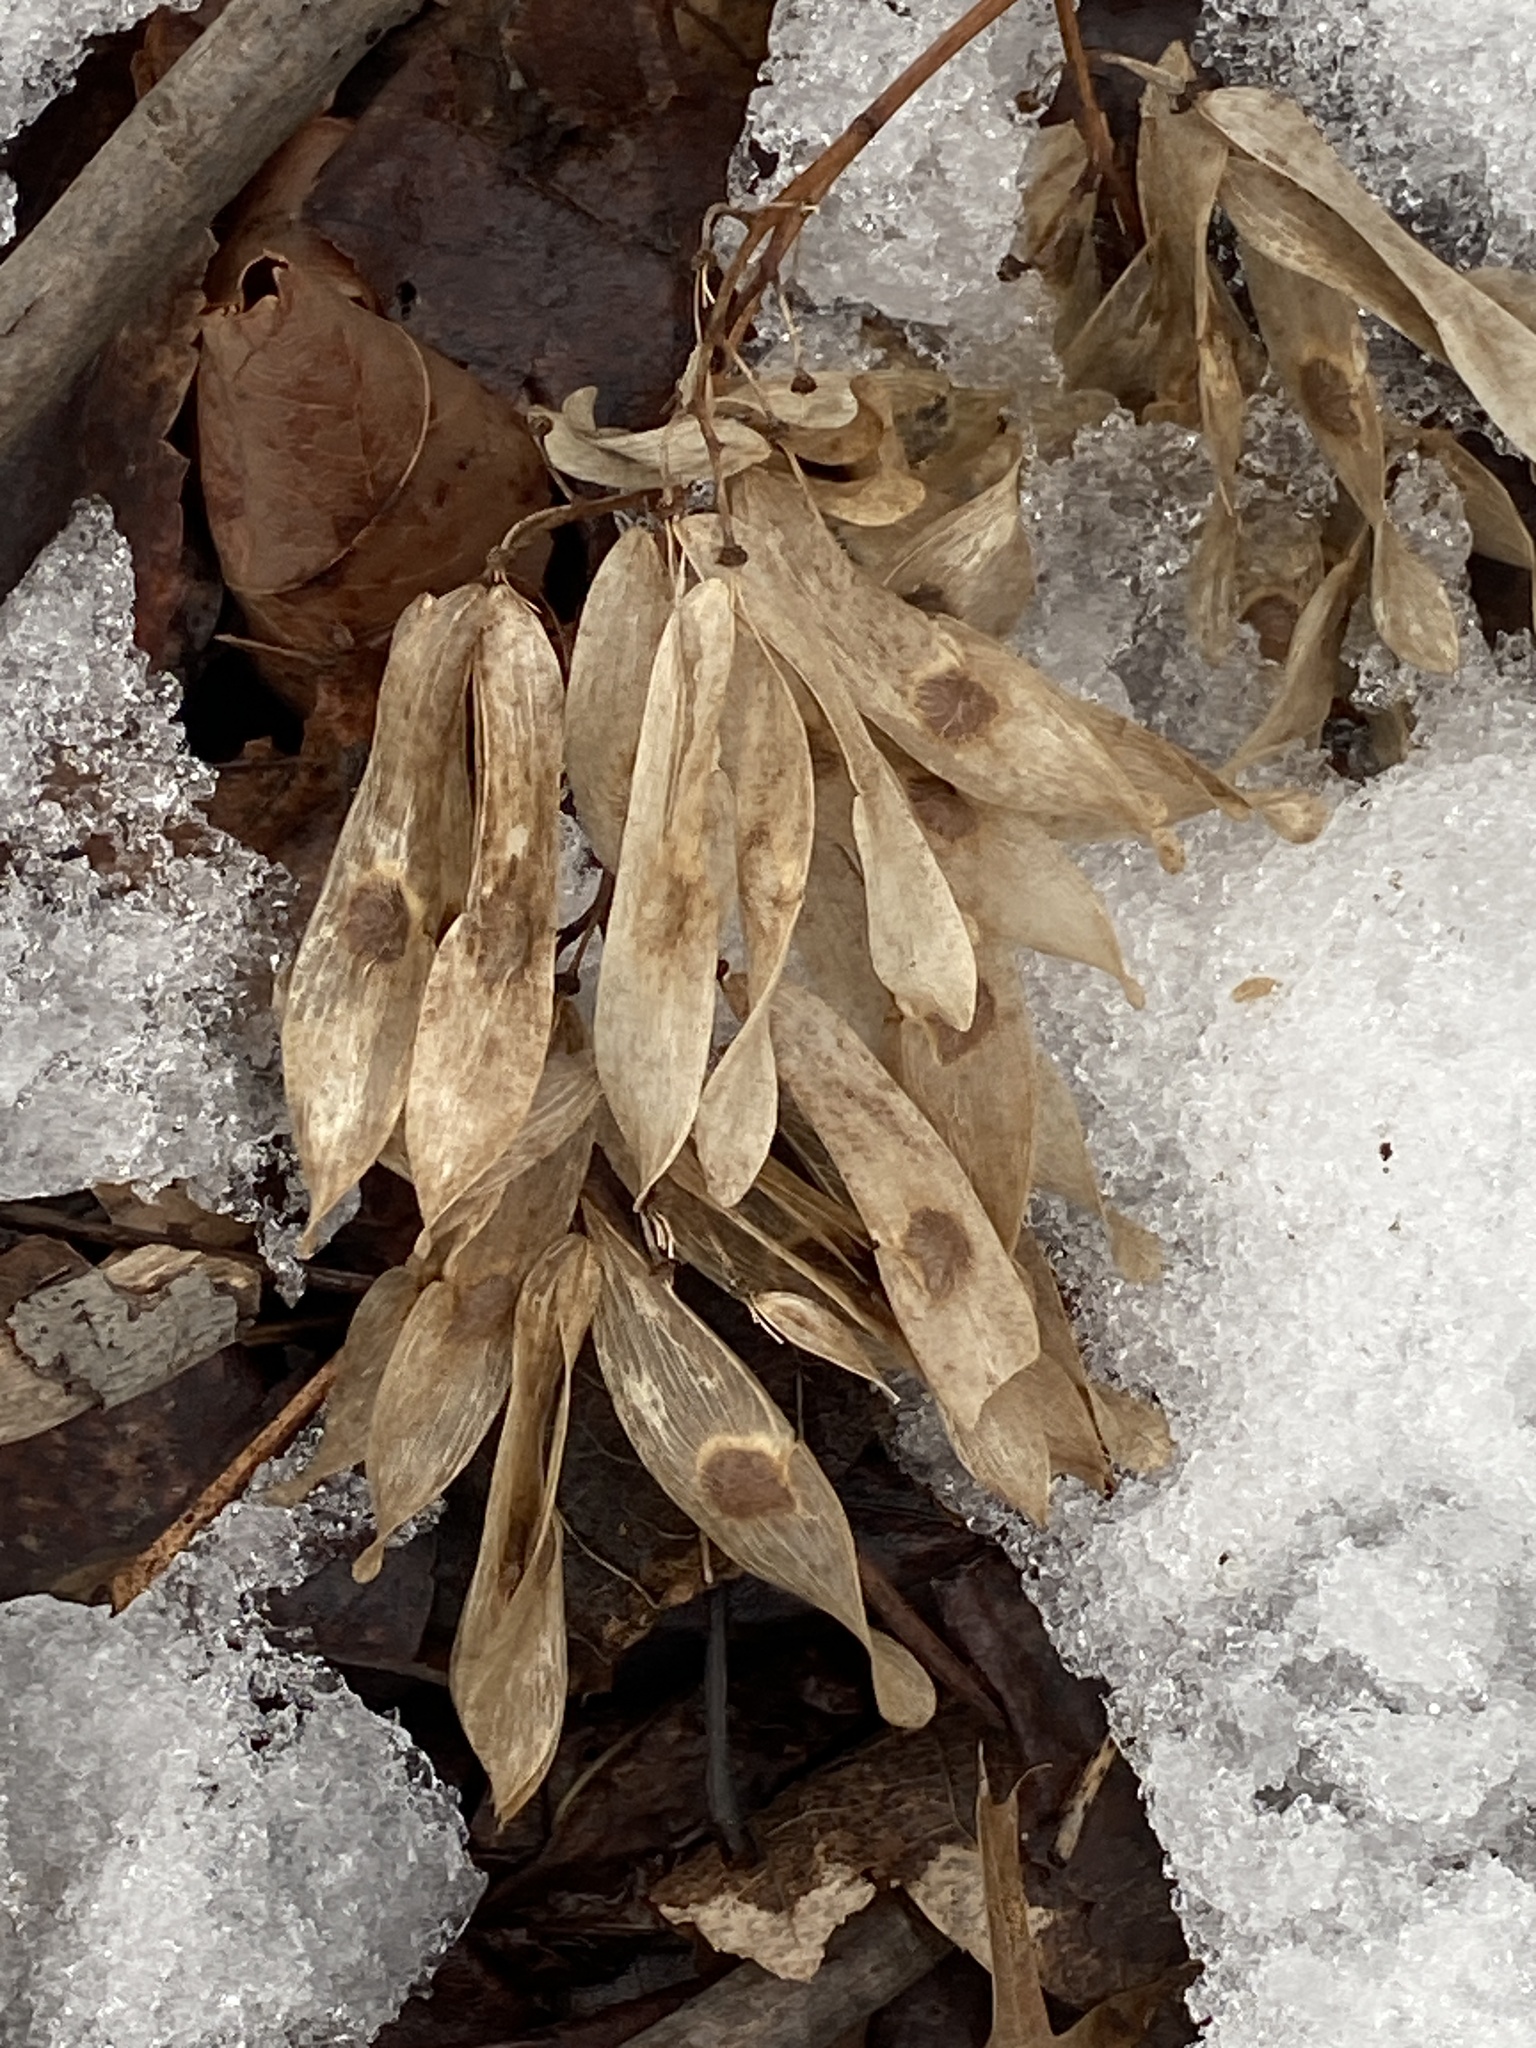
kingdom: Plantae
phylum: Tracheophyta
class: Magnoliopsida
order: Sapindales
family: Simaroubaceae
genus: Ailanthus
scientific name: Ailanthus altissima
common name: Tree-of-heaven
